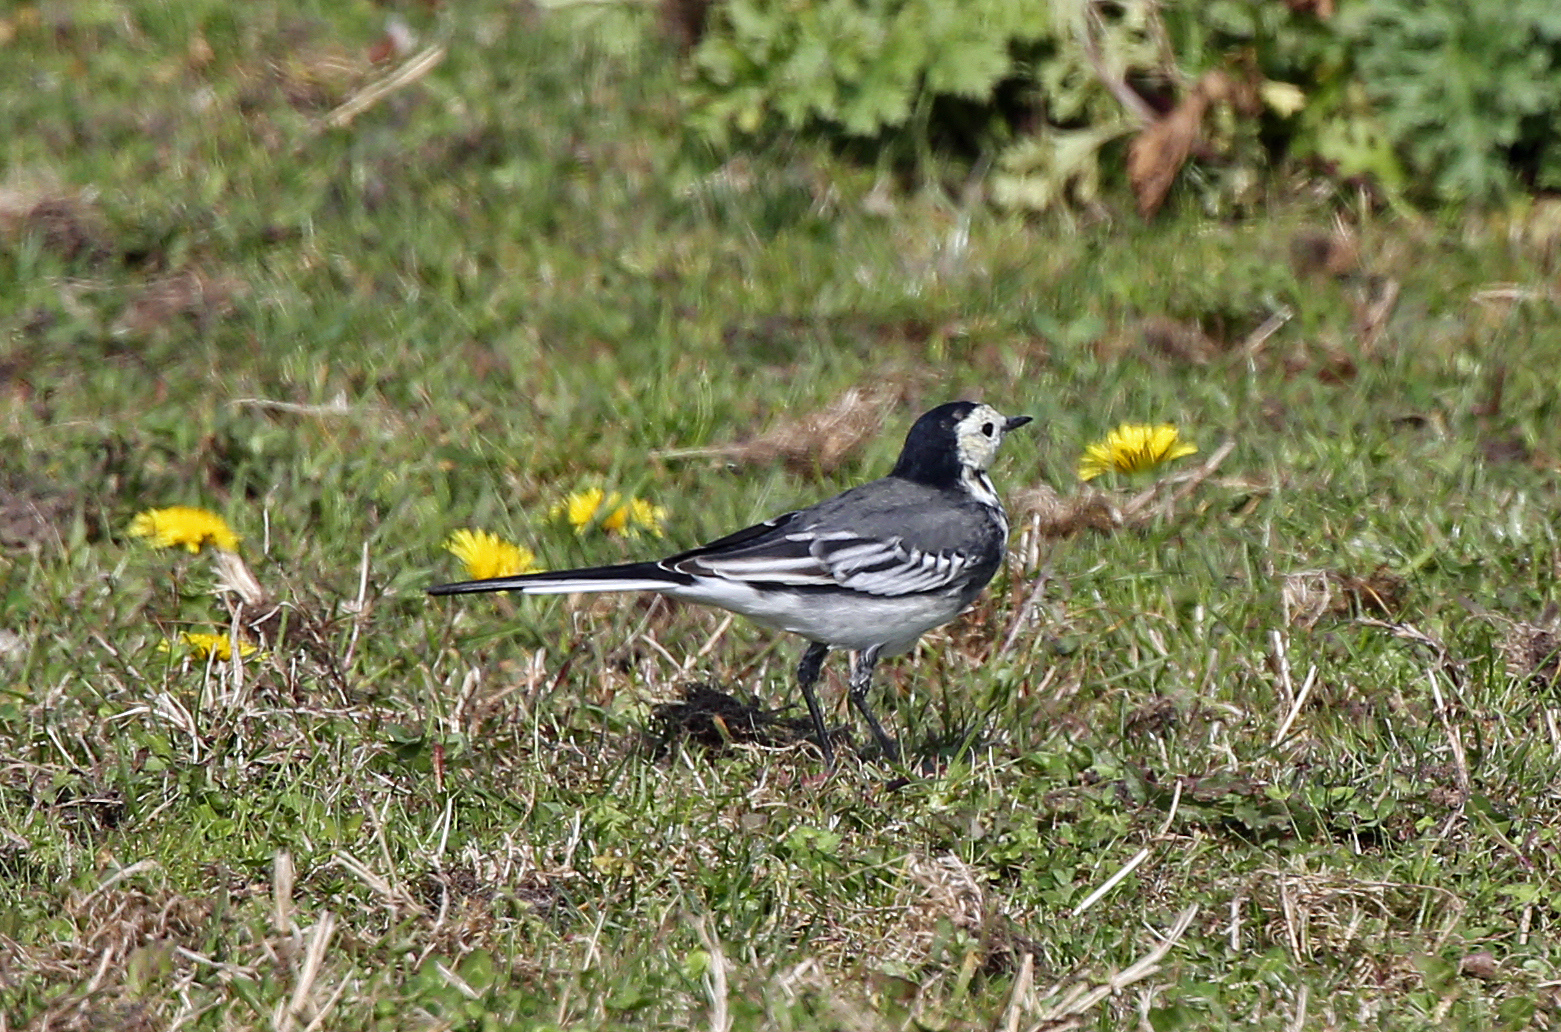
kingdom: Animalia
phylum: Chordata
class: Aves
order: Passeriformes
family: Motacillidae
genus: Motacilla
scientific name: Motacilla alba
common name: White wagtail
